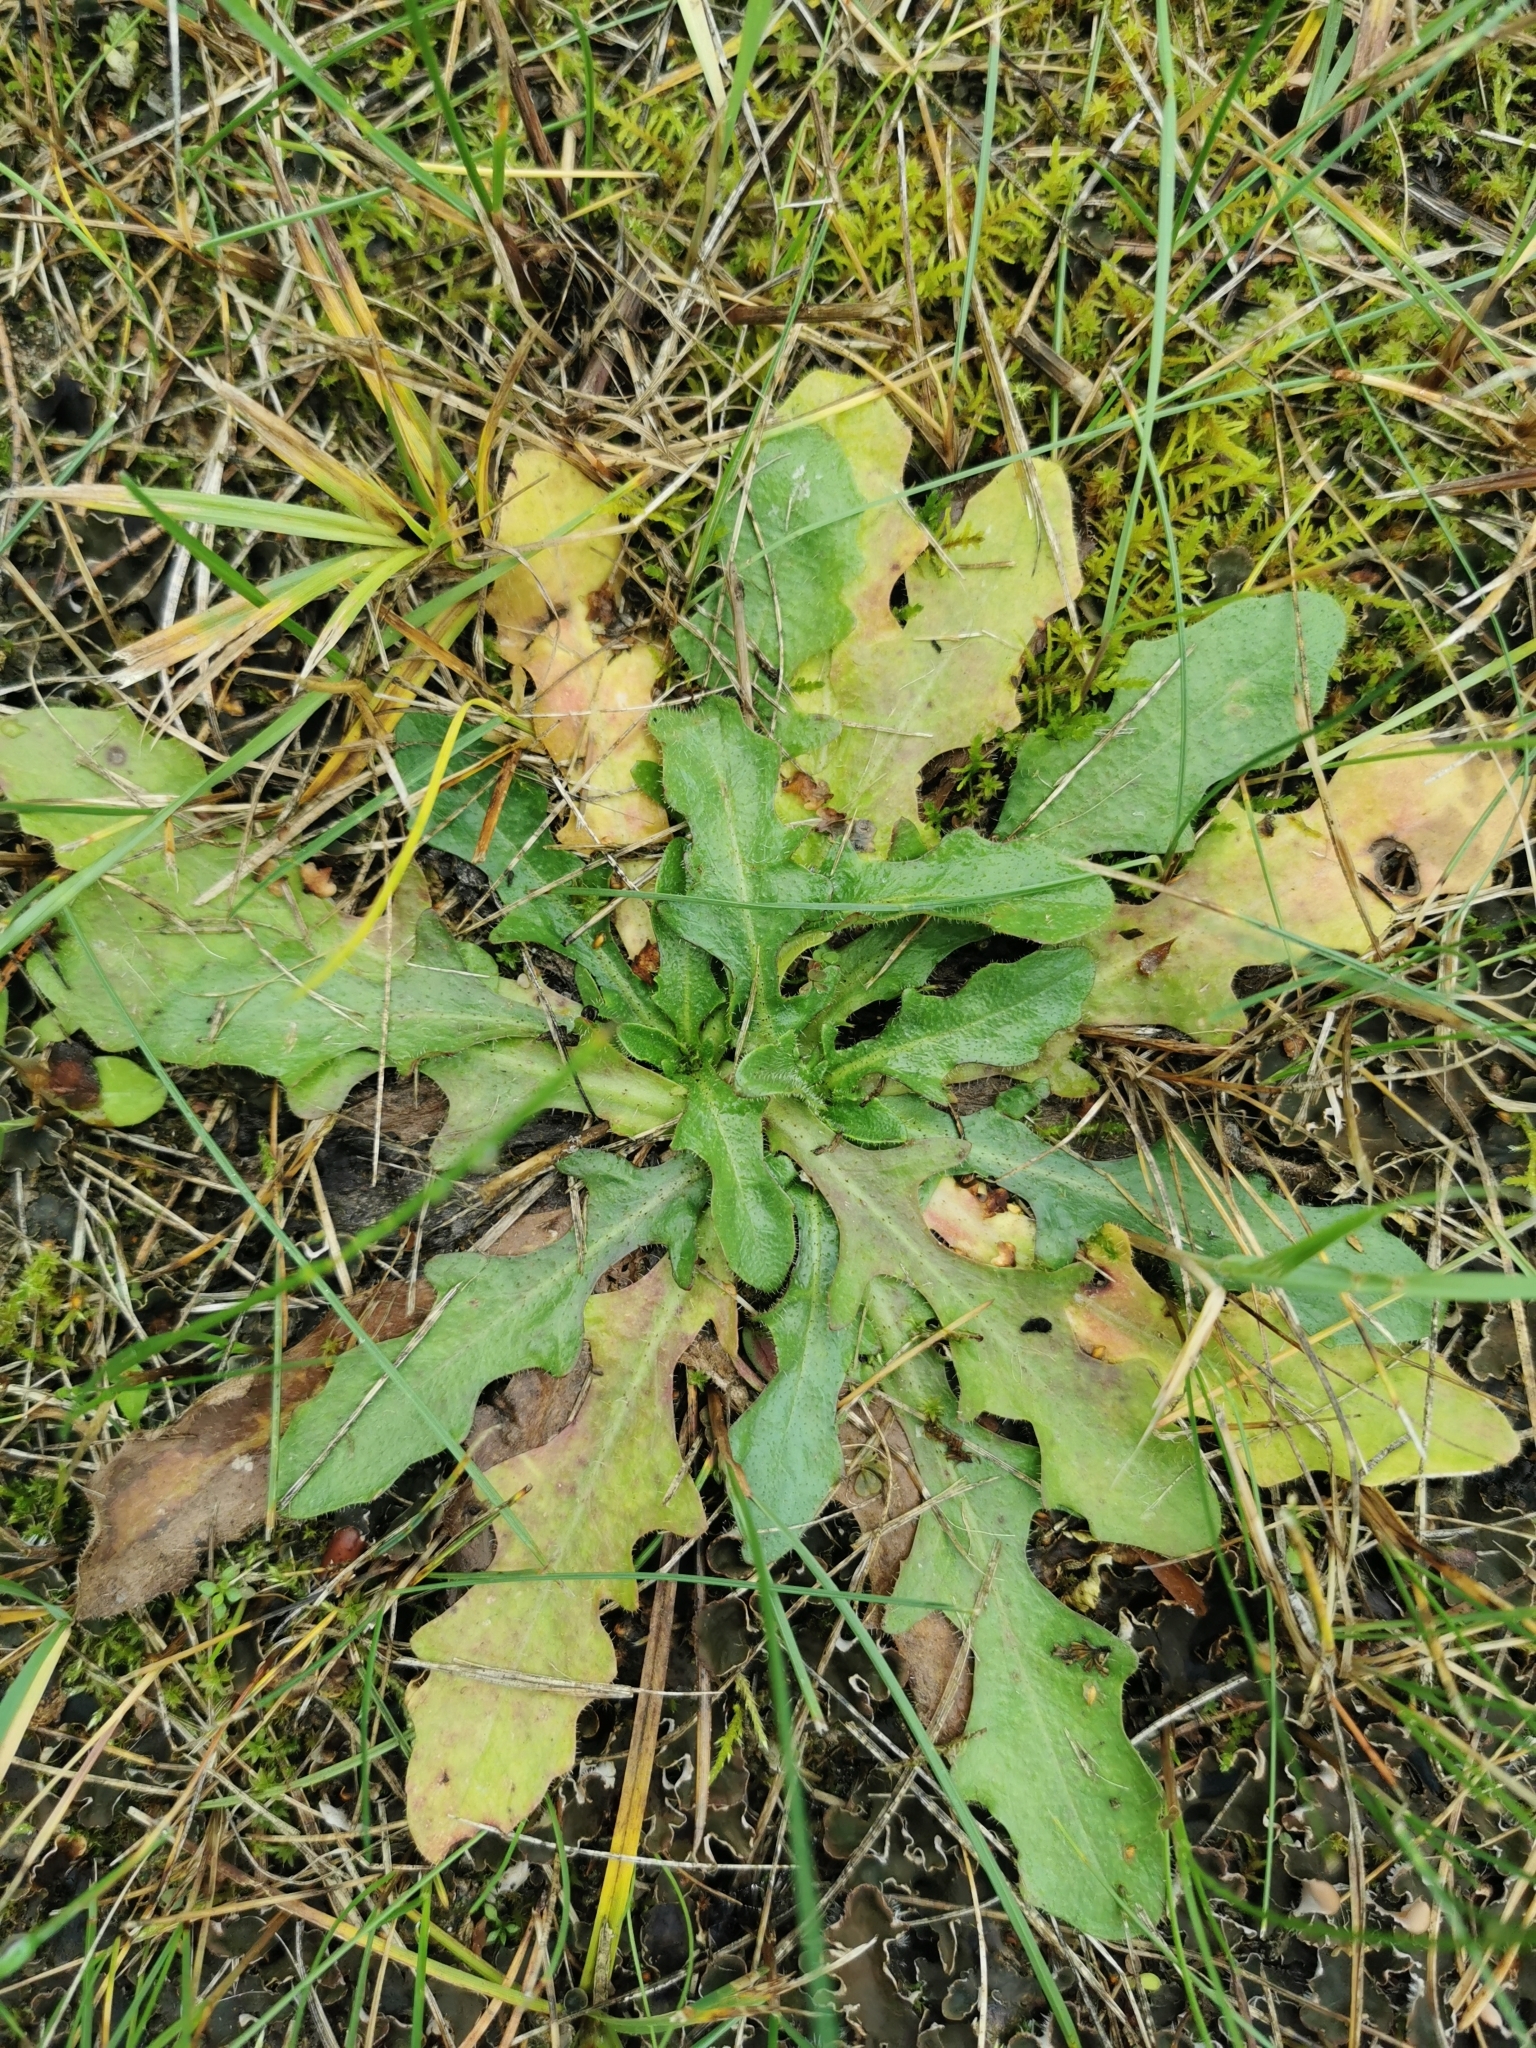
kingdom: Plantae
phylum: Tracheophyta
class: Magnoliopsida
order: Asterales
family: Asteraceae
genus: Hypochaeris
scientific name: Hypochaeris radicata
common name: Flatweed
